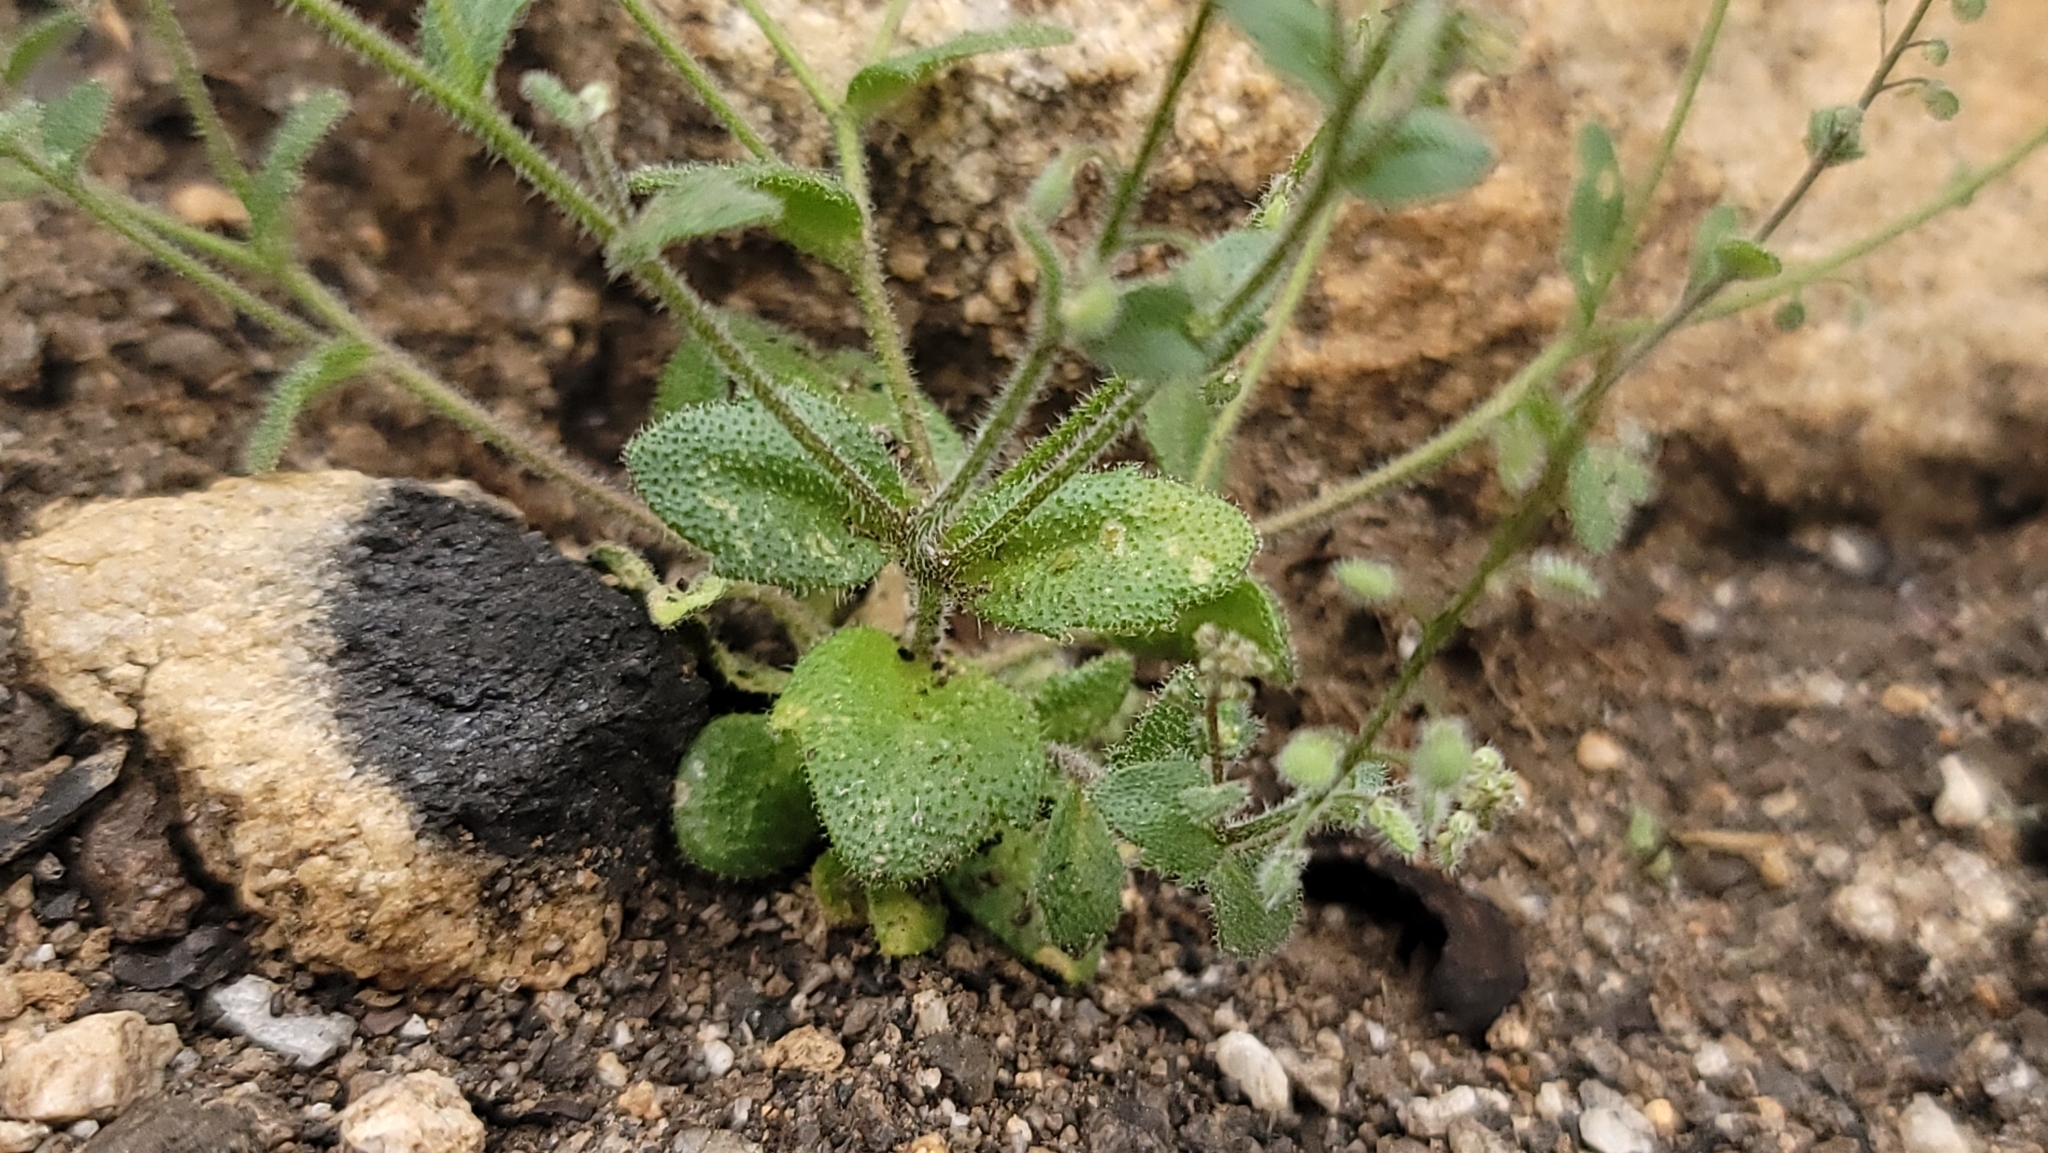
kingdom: Plantae
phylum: Tracheophyta
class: Magnoliopsida
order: Brassicales
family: Brassicaceae
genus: Athysanus
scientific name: Athysanus pusillus
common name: Common sandweed
